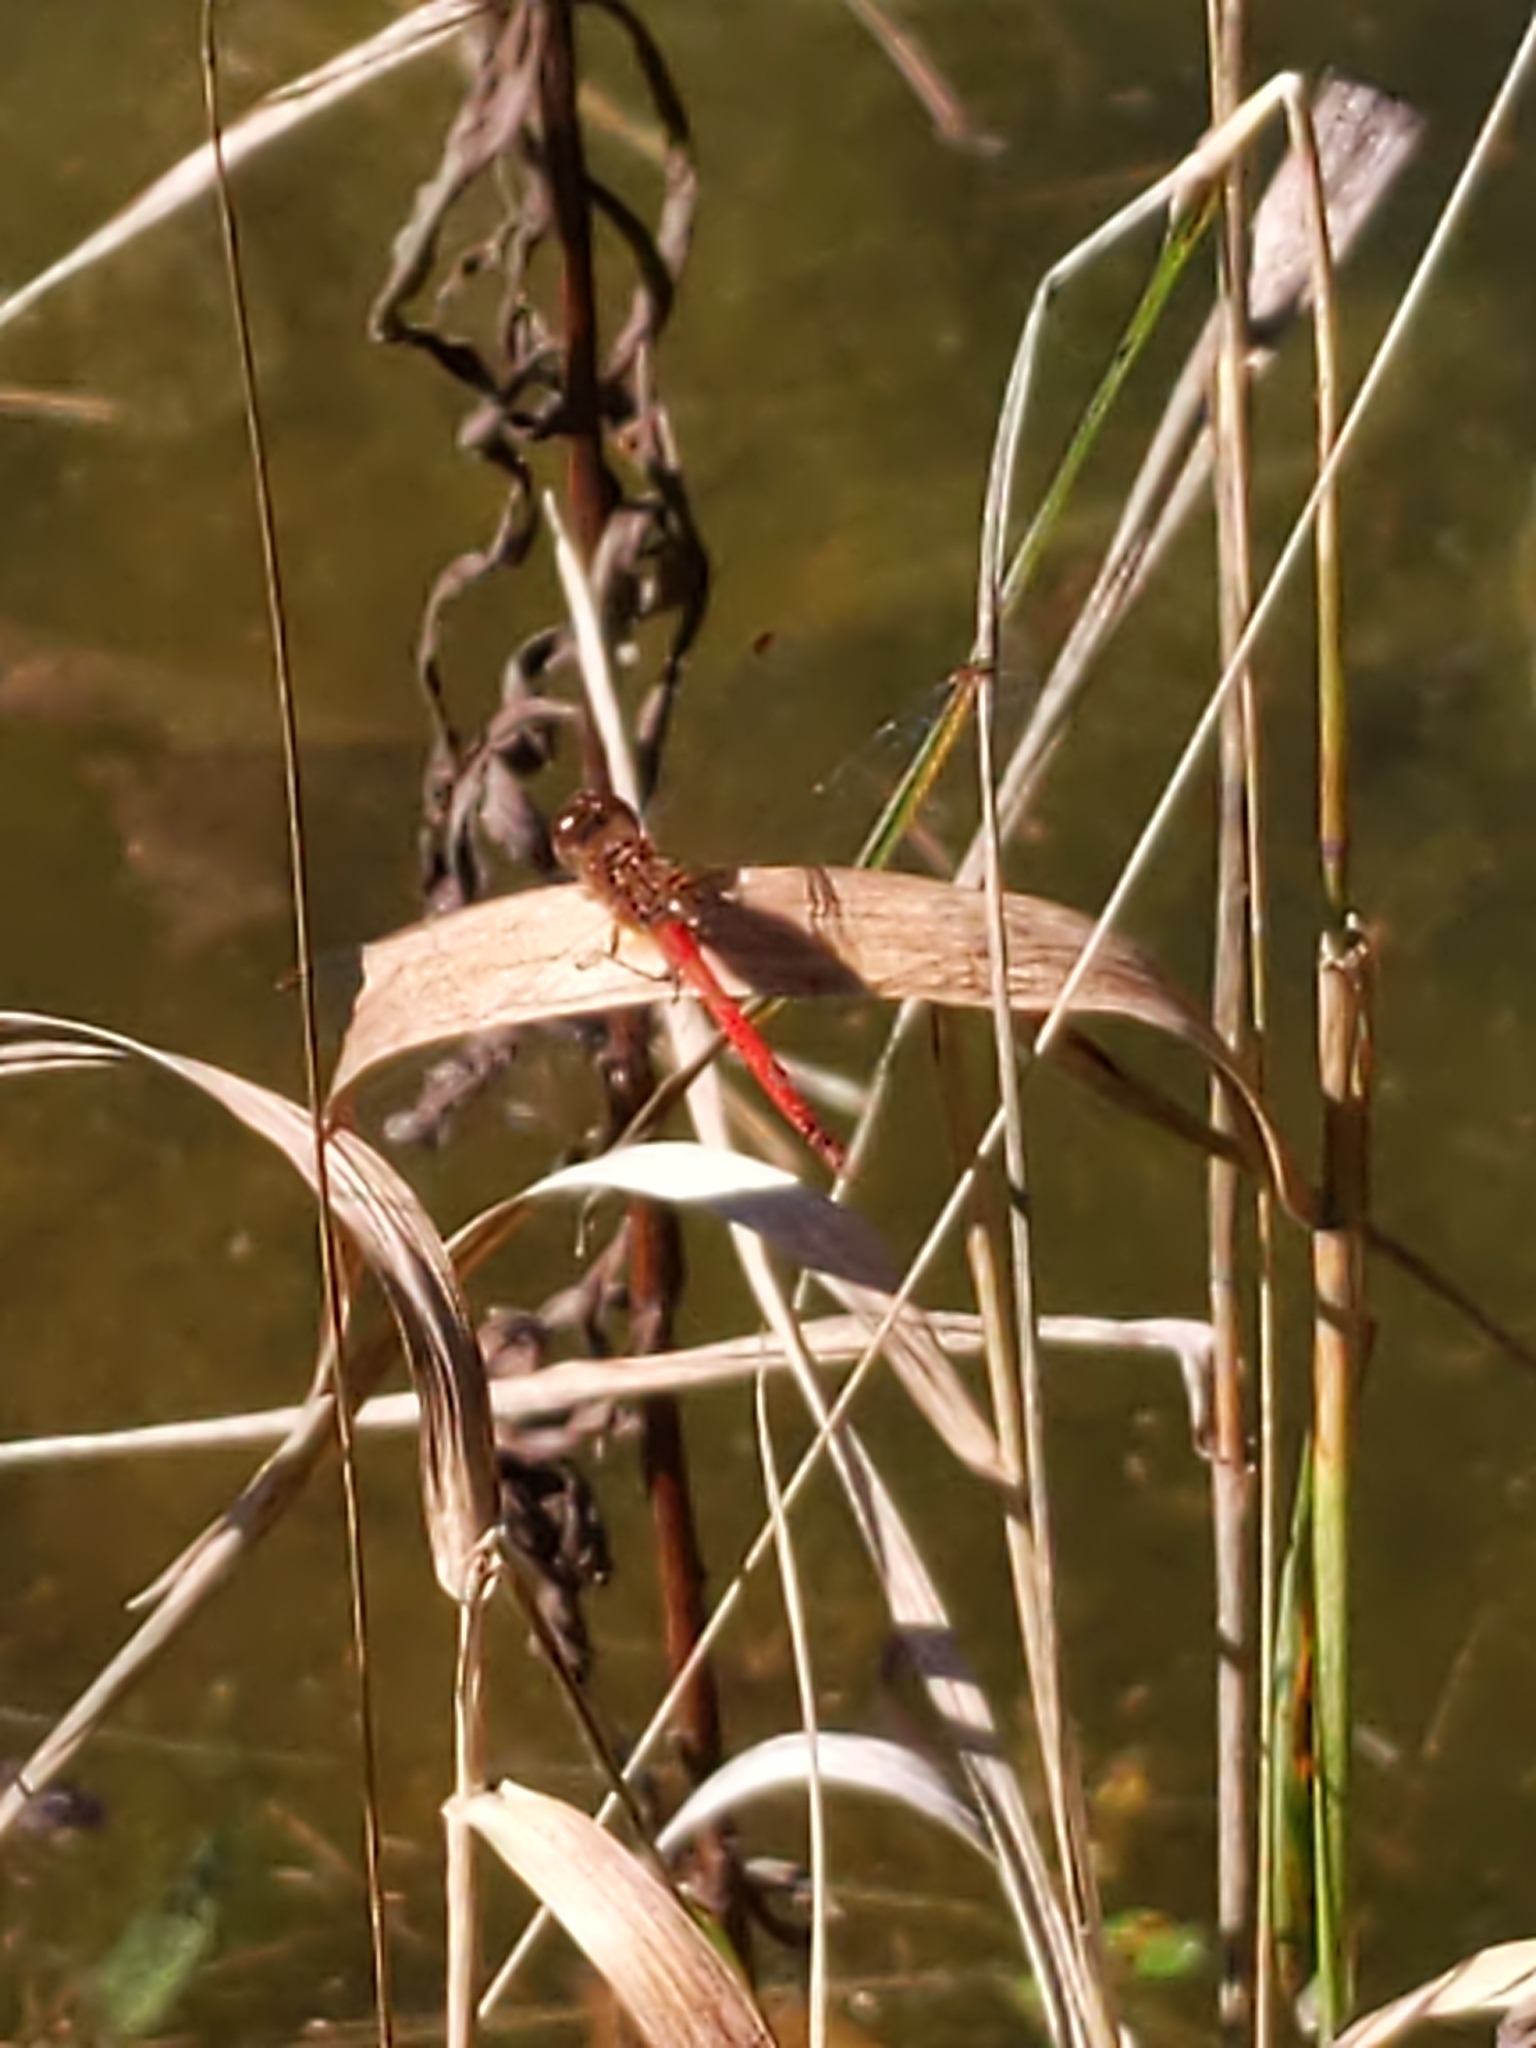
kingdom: Animalia
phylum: Arthropoda
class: Insecta
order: Odonata
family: Libellulidae
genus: Sympetrum
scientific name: Sympetrum vicinum
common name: Autumn meadowhawk
